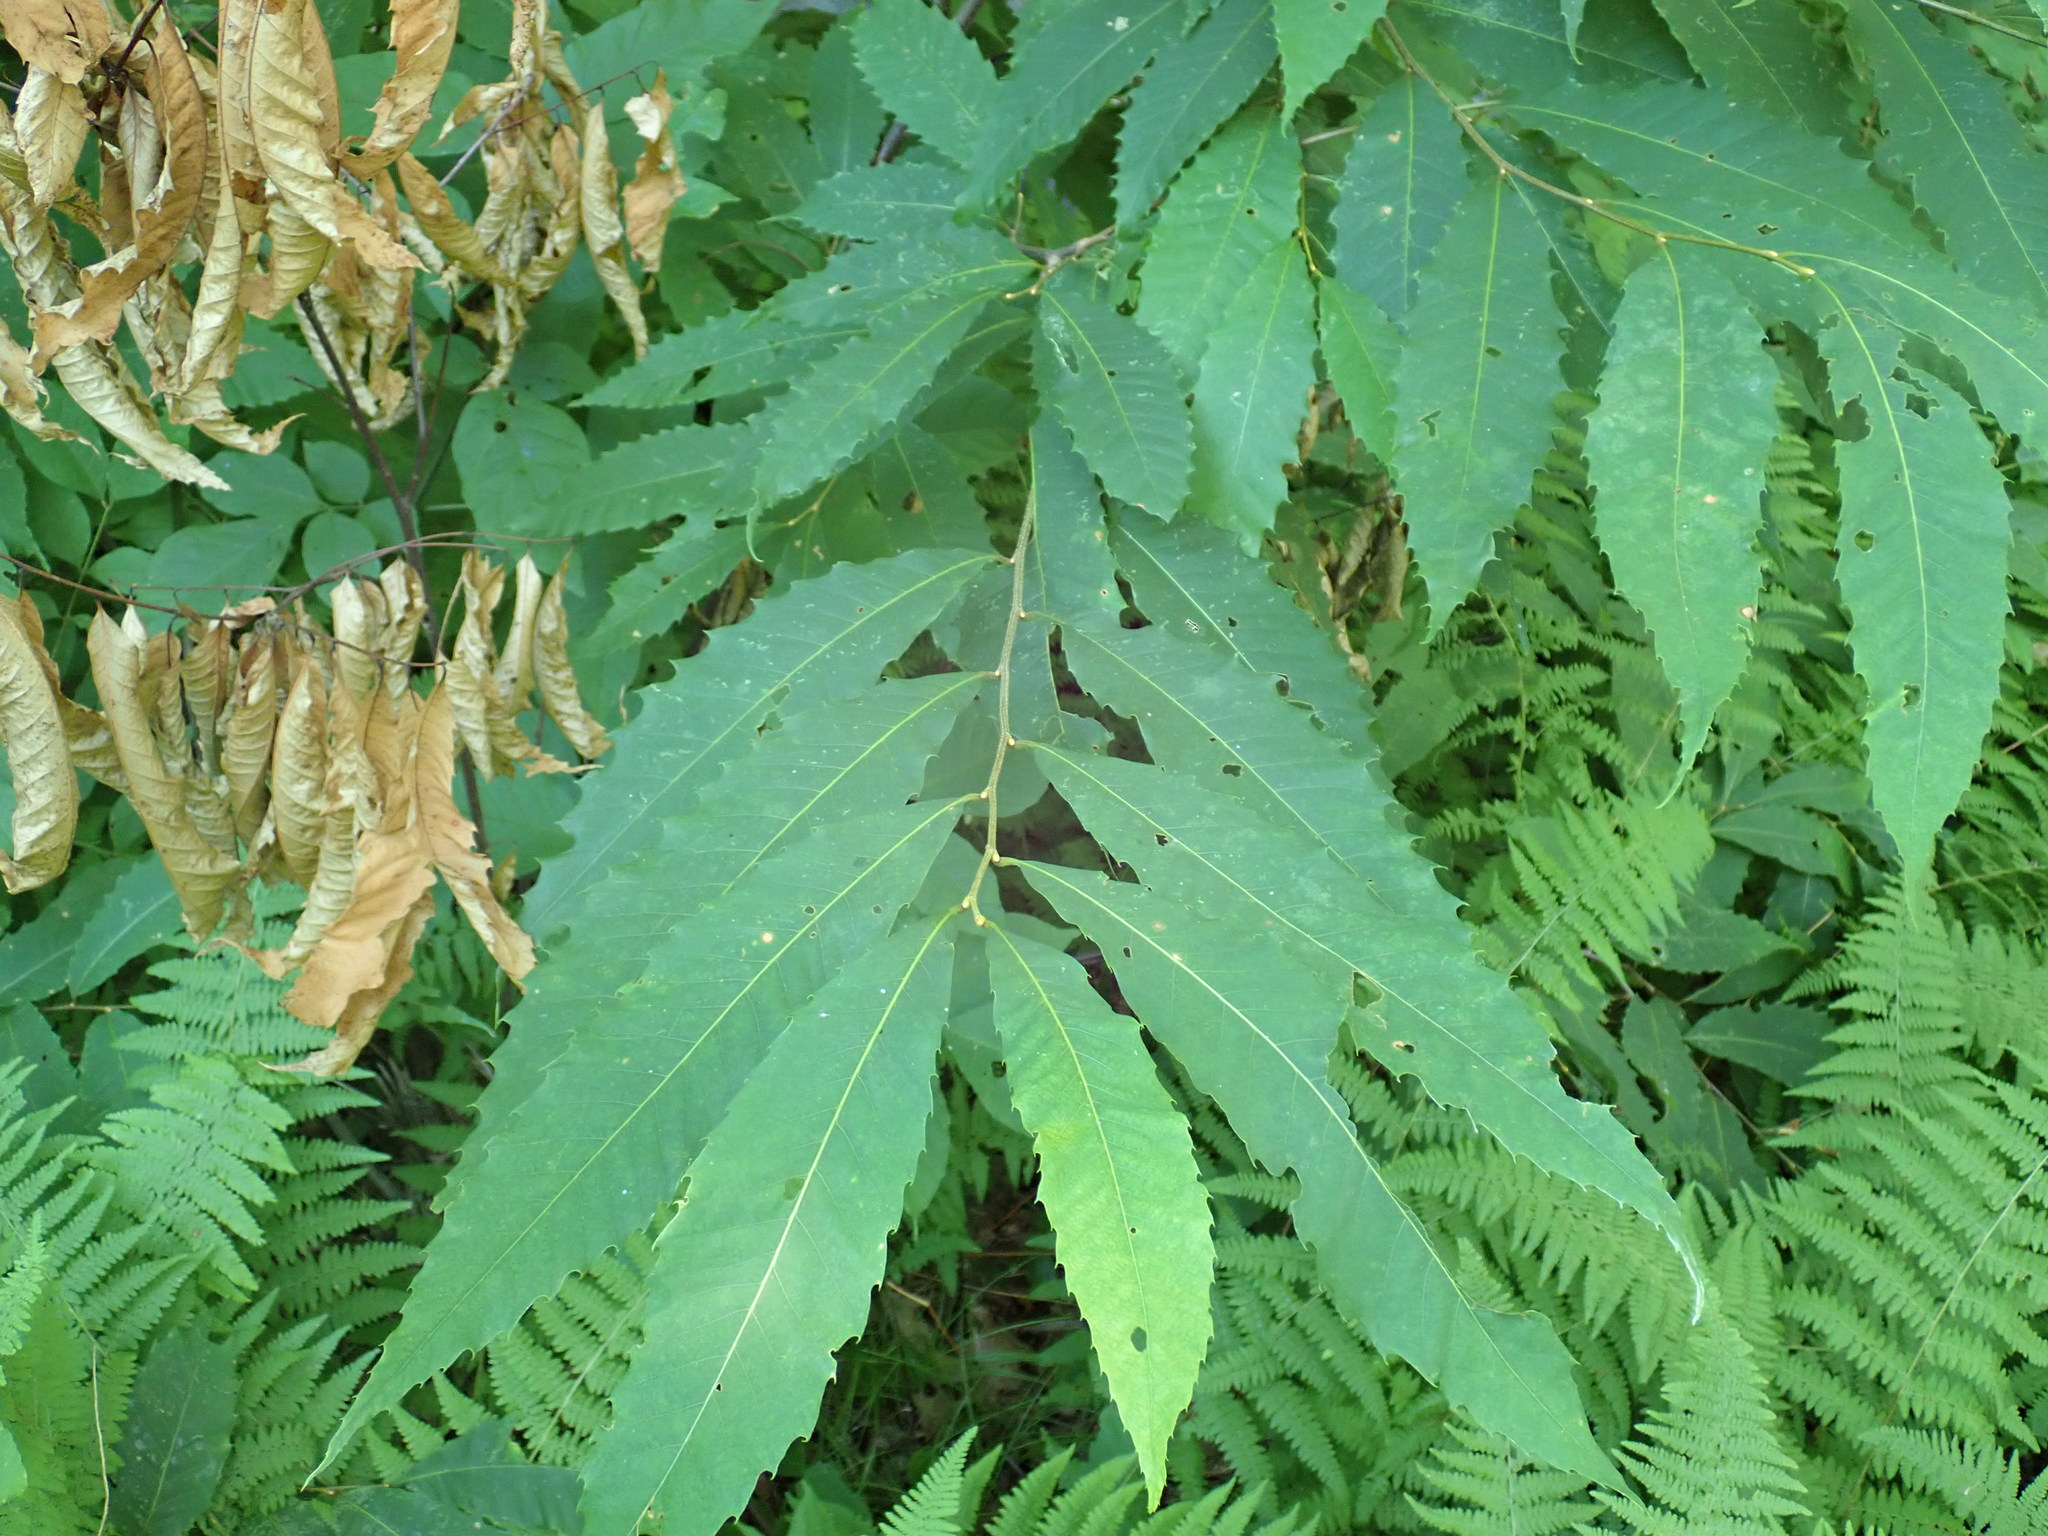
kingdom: Plantae
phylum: Tracheophyta
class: Magnoliopsida
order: Fagales
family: Fagaceae
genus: Castanea
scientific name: Castanea dentata
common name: American chestnut
